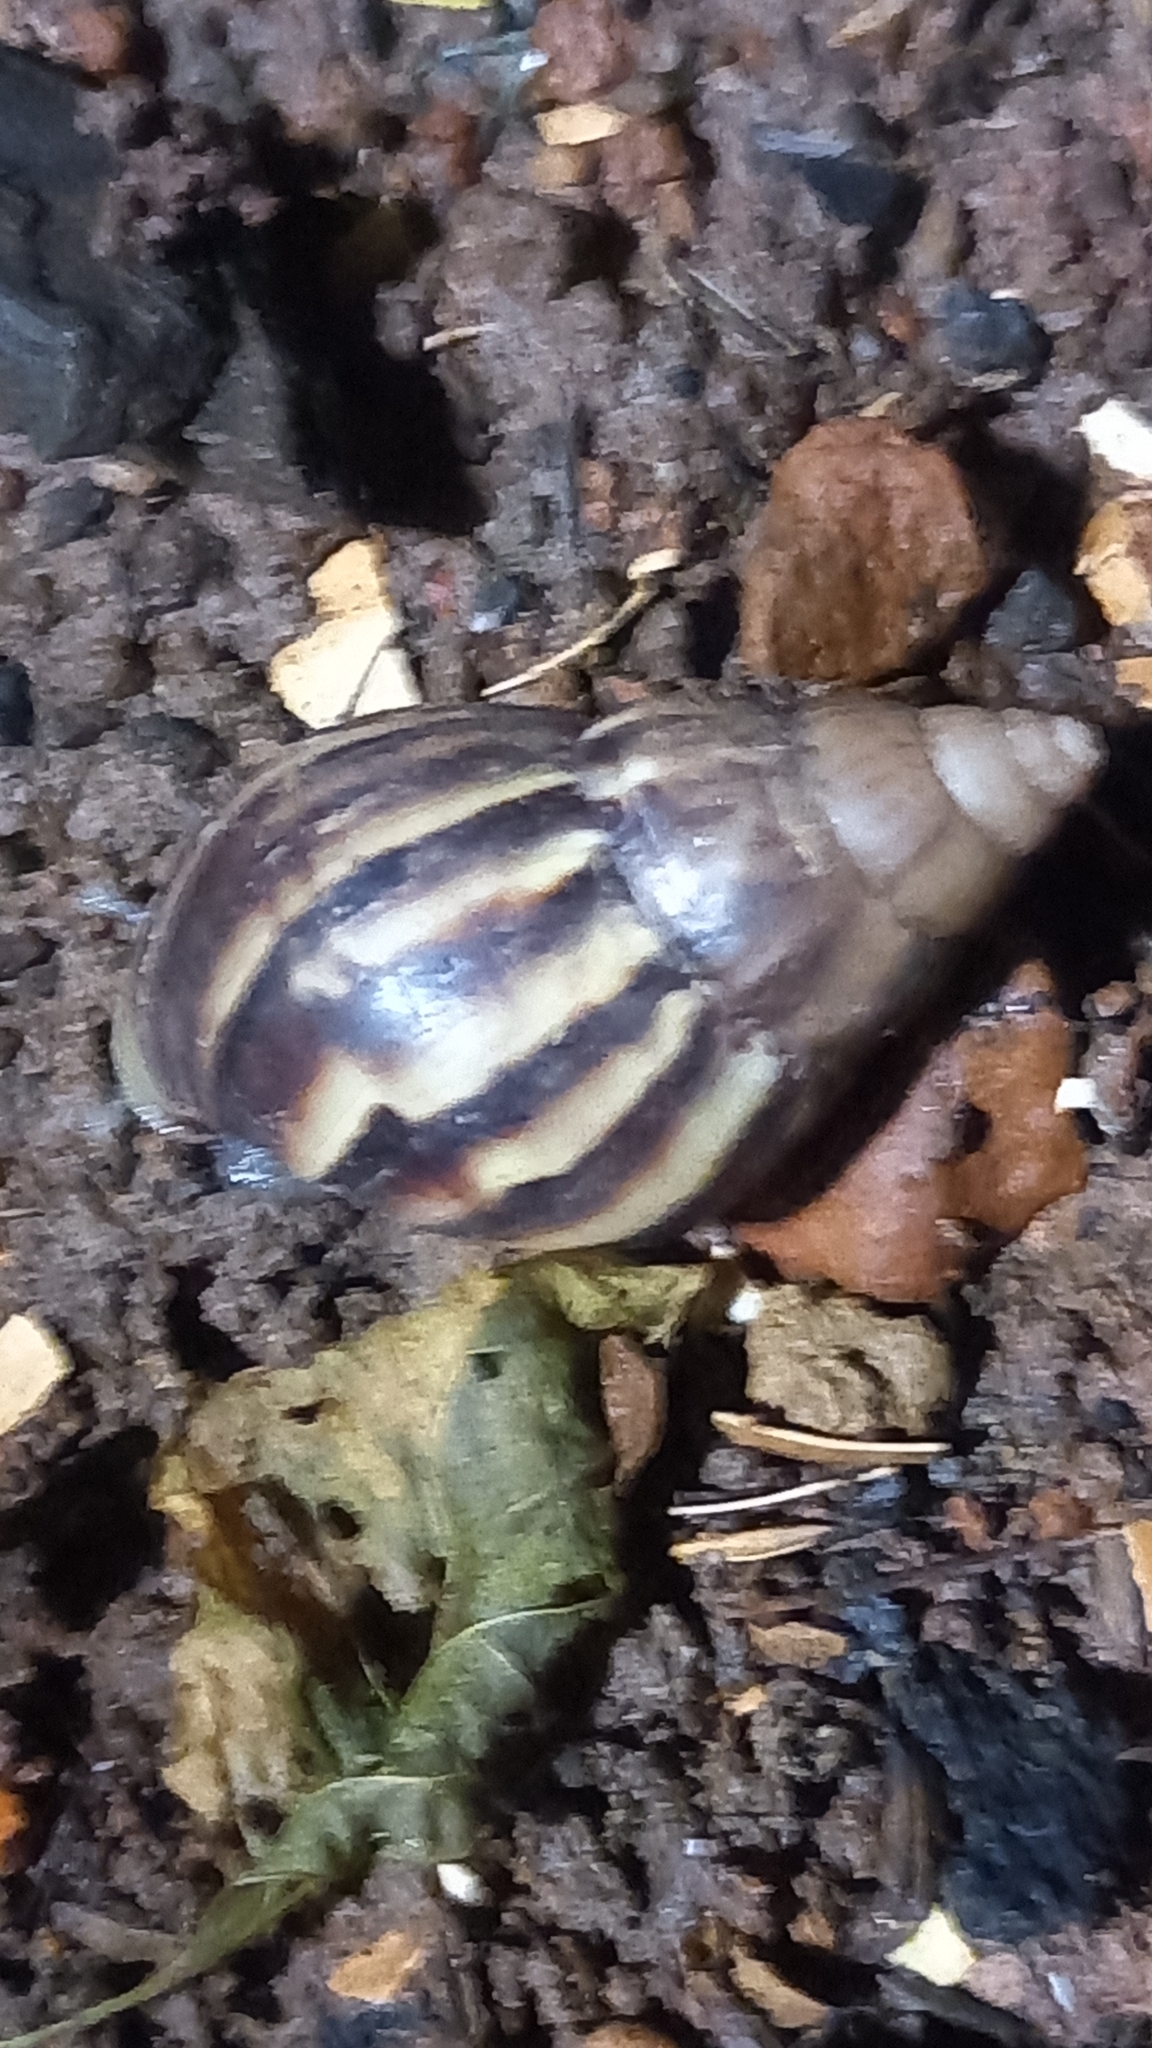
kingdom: Animalia
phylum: Mollusca
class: Gastropoda
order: Stylommatophora
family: Achatinidae
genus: Lissachatina
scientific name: Lissachatina fulica
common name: Giant african snail
